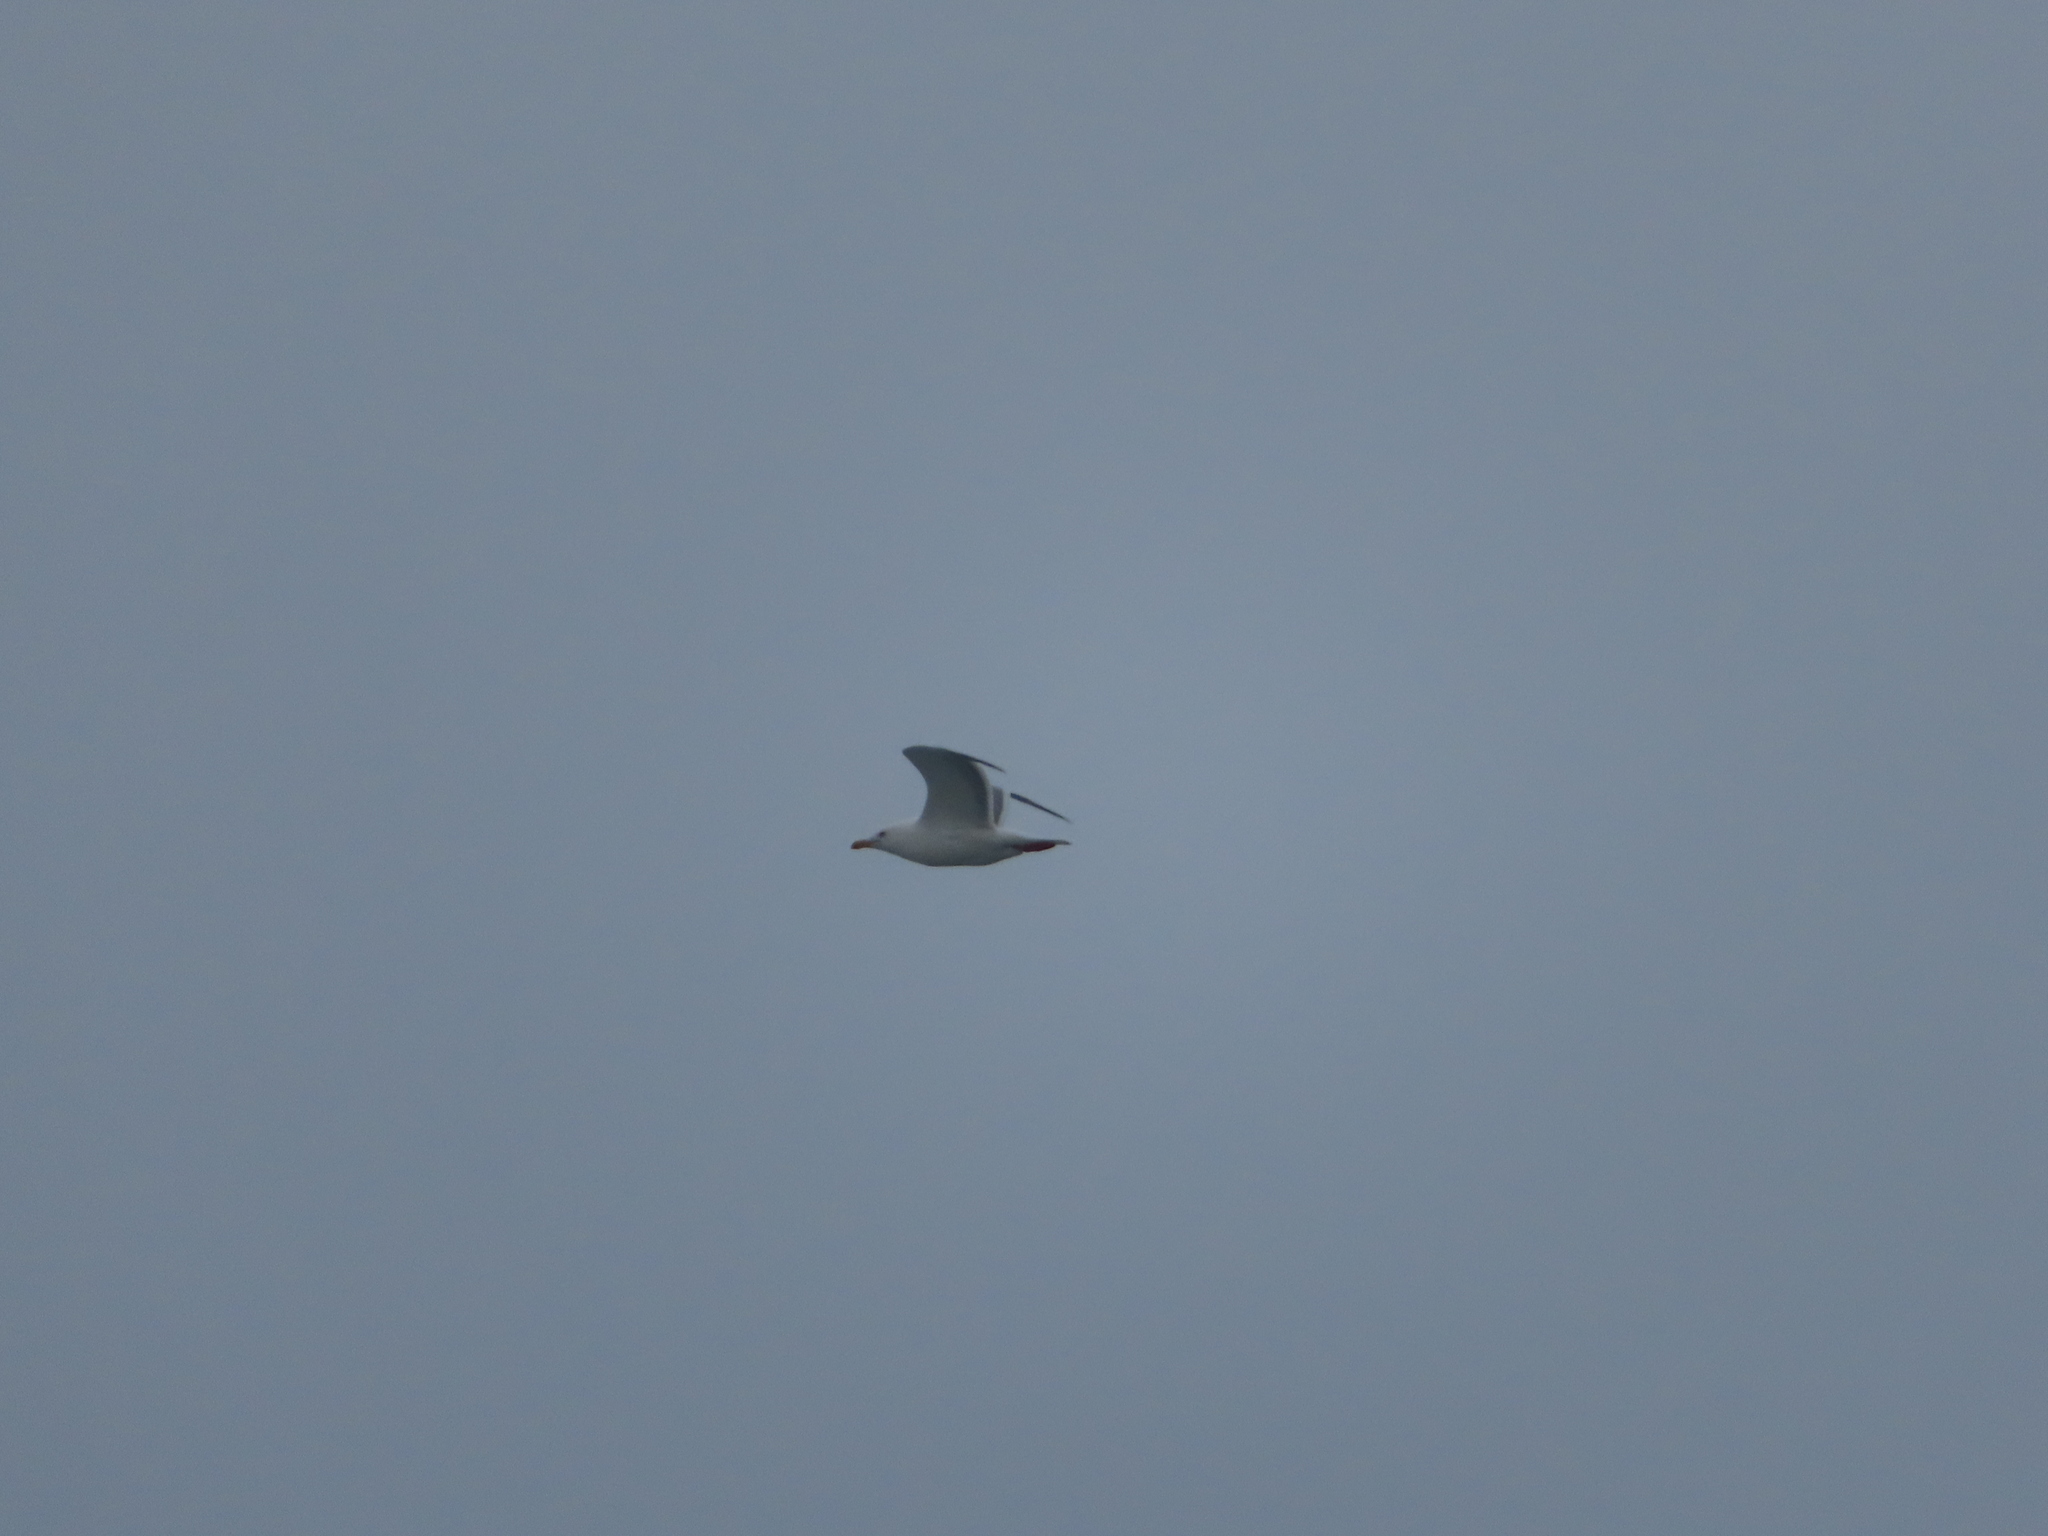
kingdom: Animalia
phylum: Chordata
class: Aves
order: Charadriiformes
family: Laridae
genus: Larus
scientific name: Larus argentatus
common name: Herring gull
